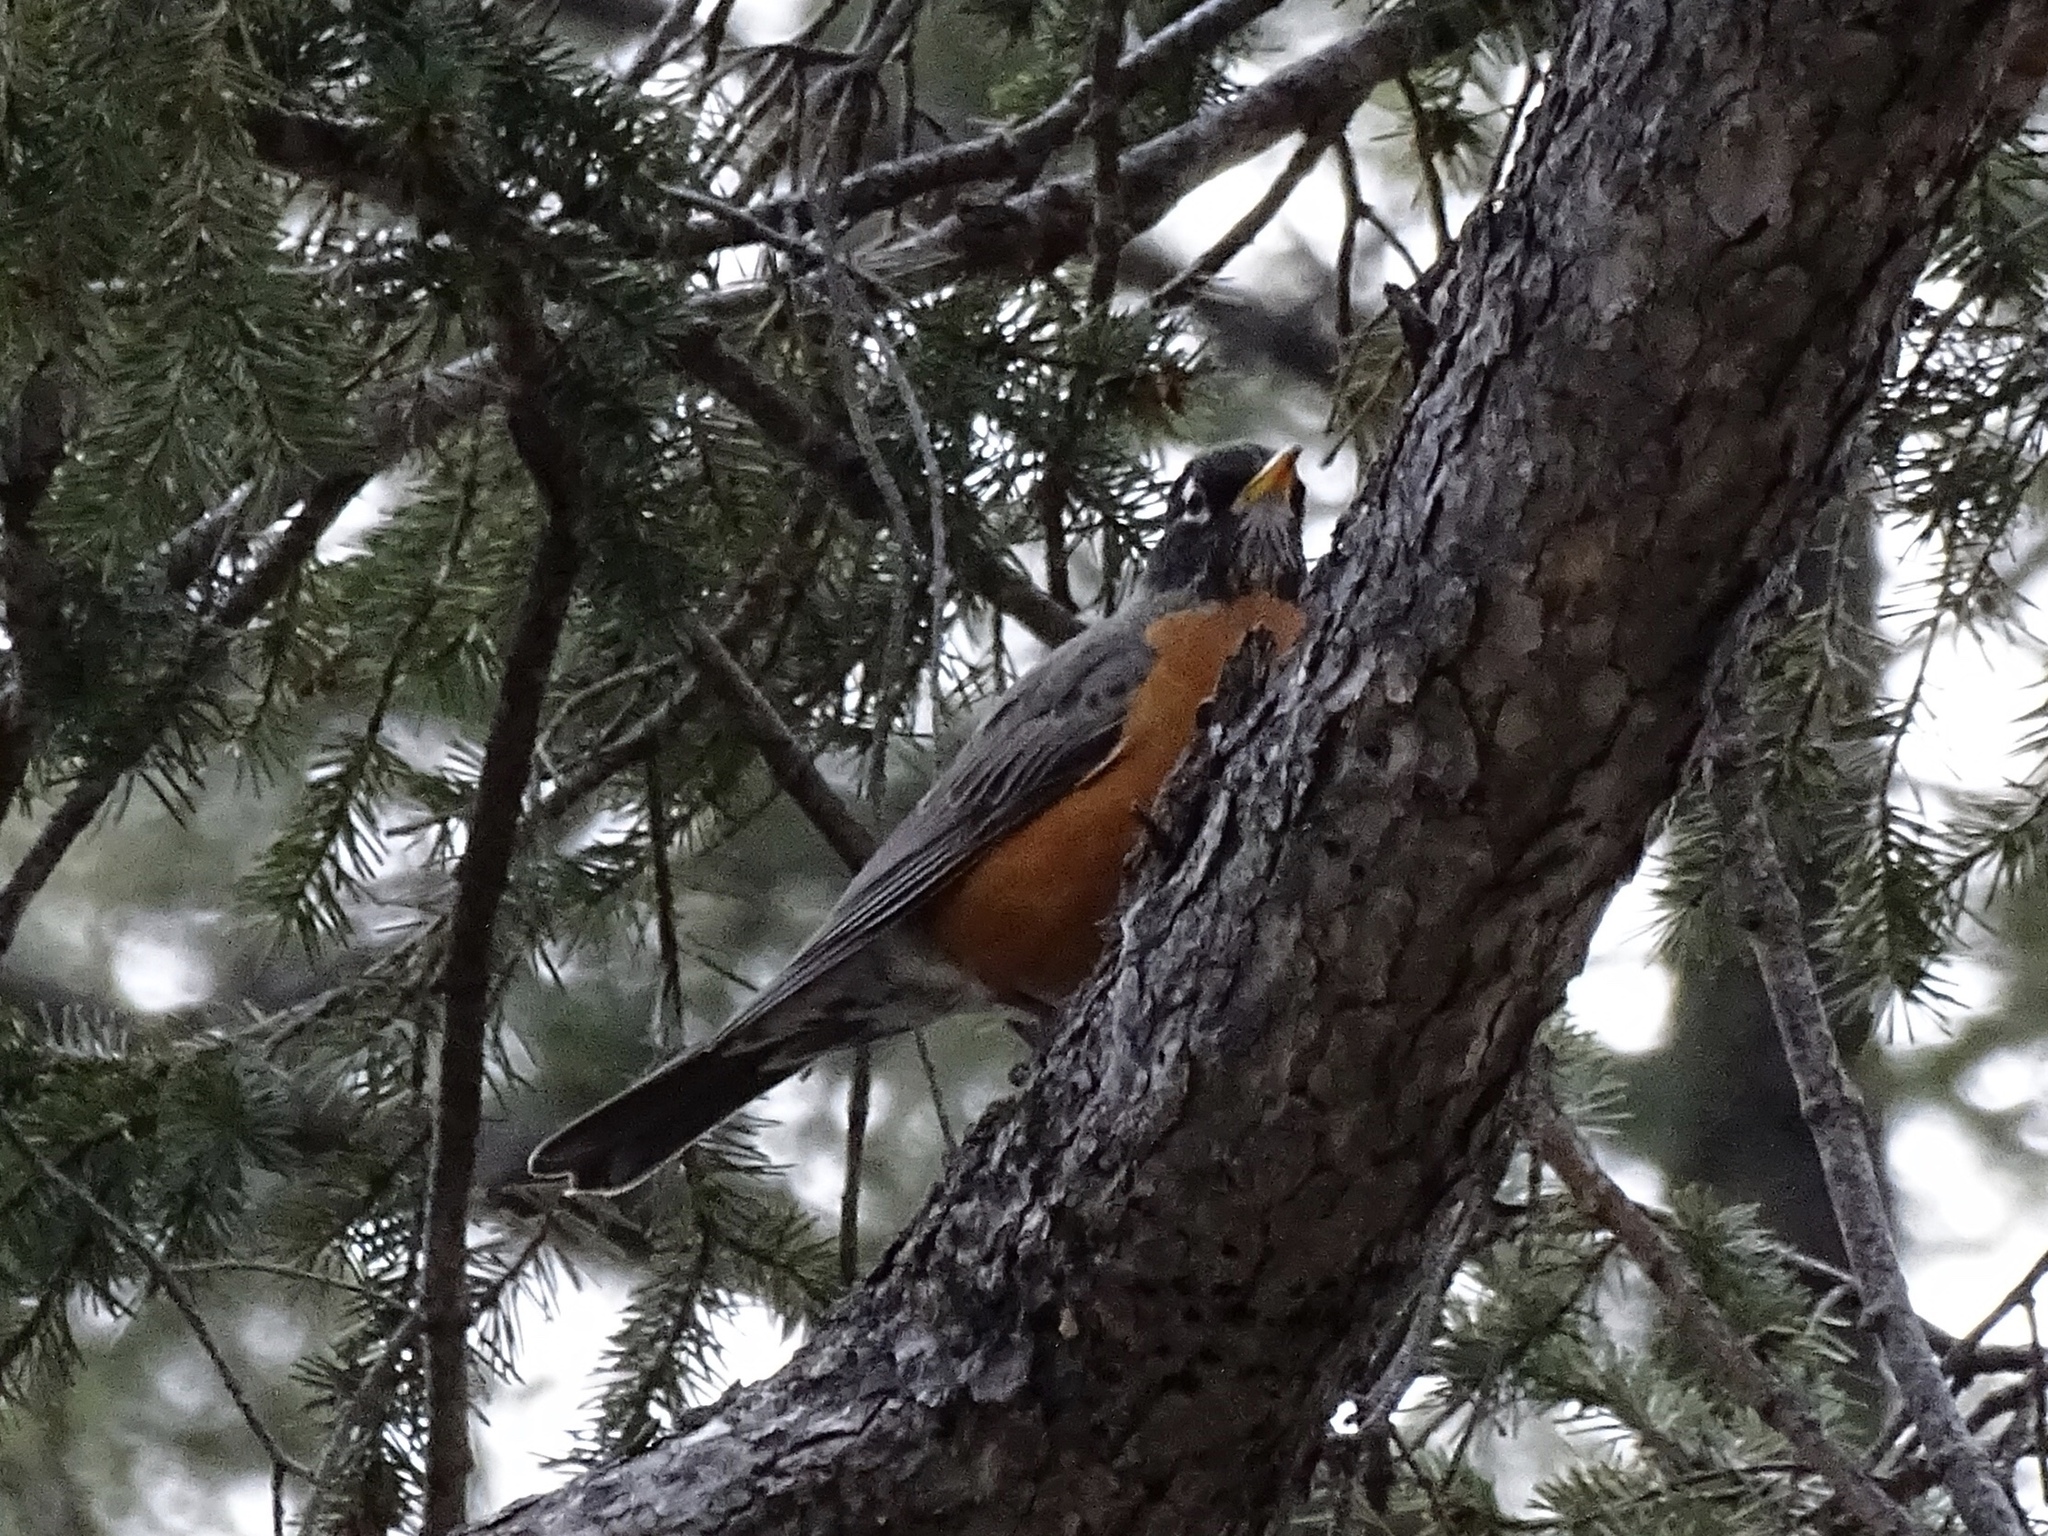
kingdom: Animalia
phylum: Chordata
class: Aves
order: Passeriformes
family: Turdidae
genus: Turdus
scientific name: Turdus migratorius
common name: American robin
